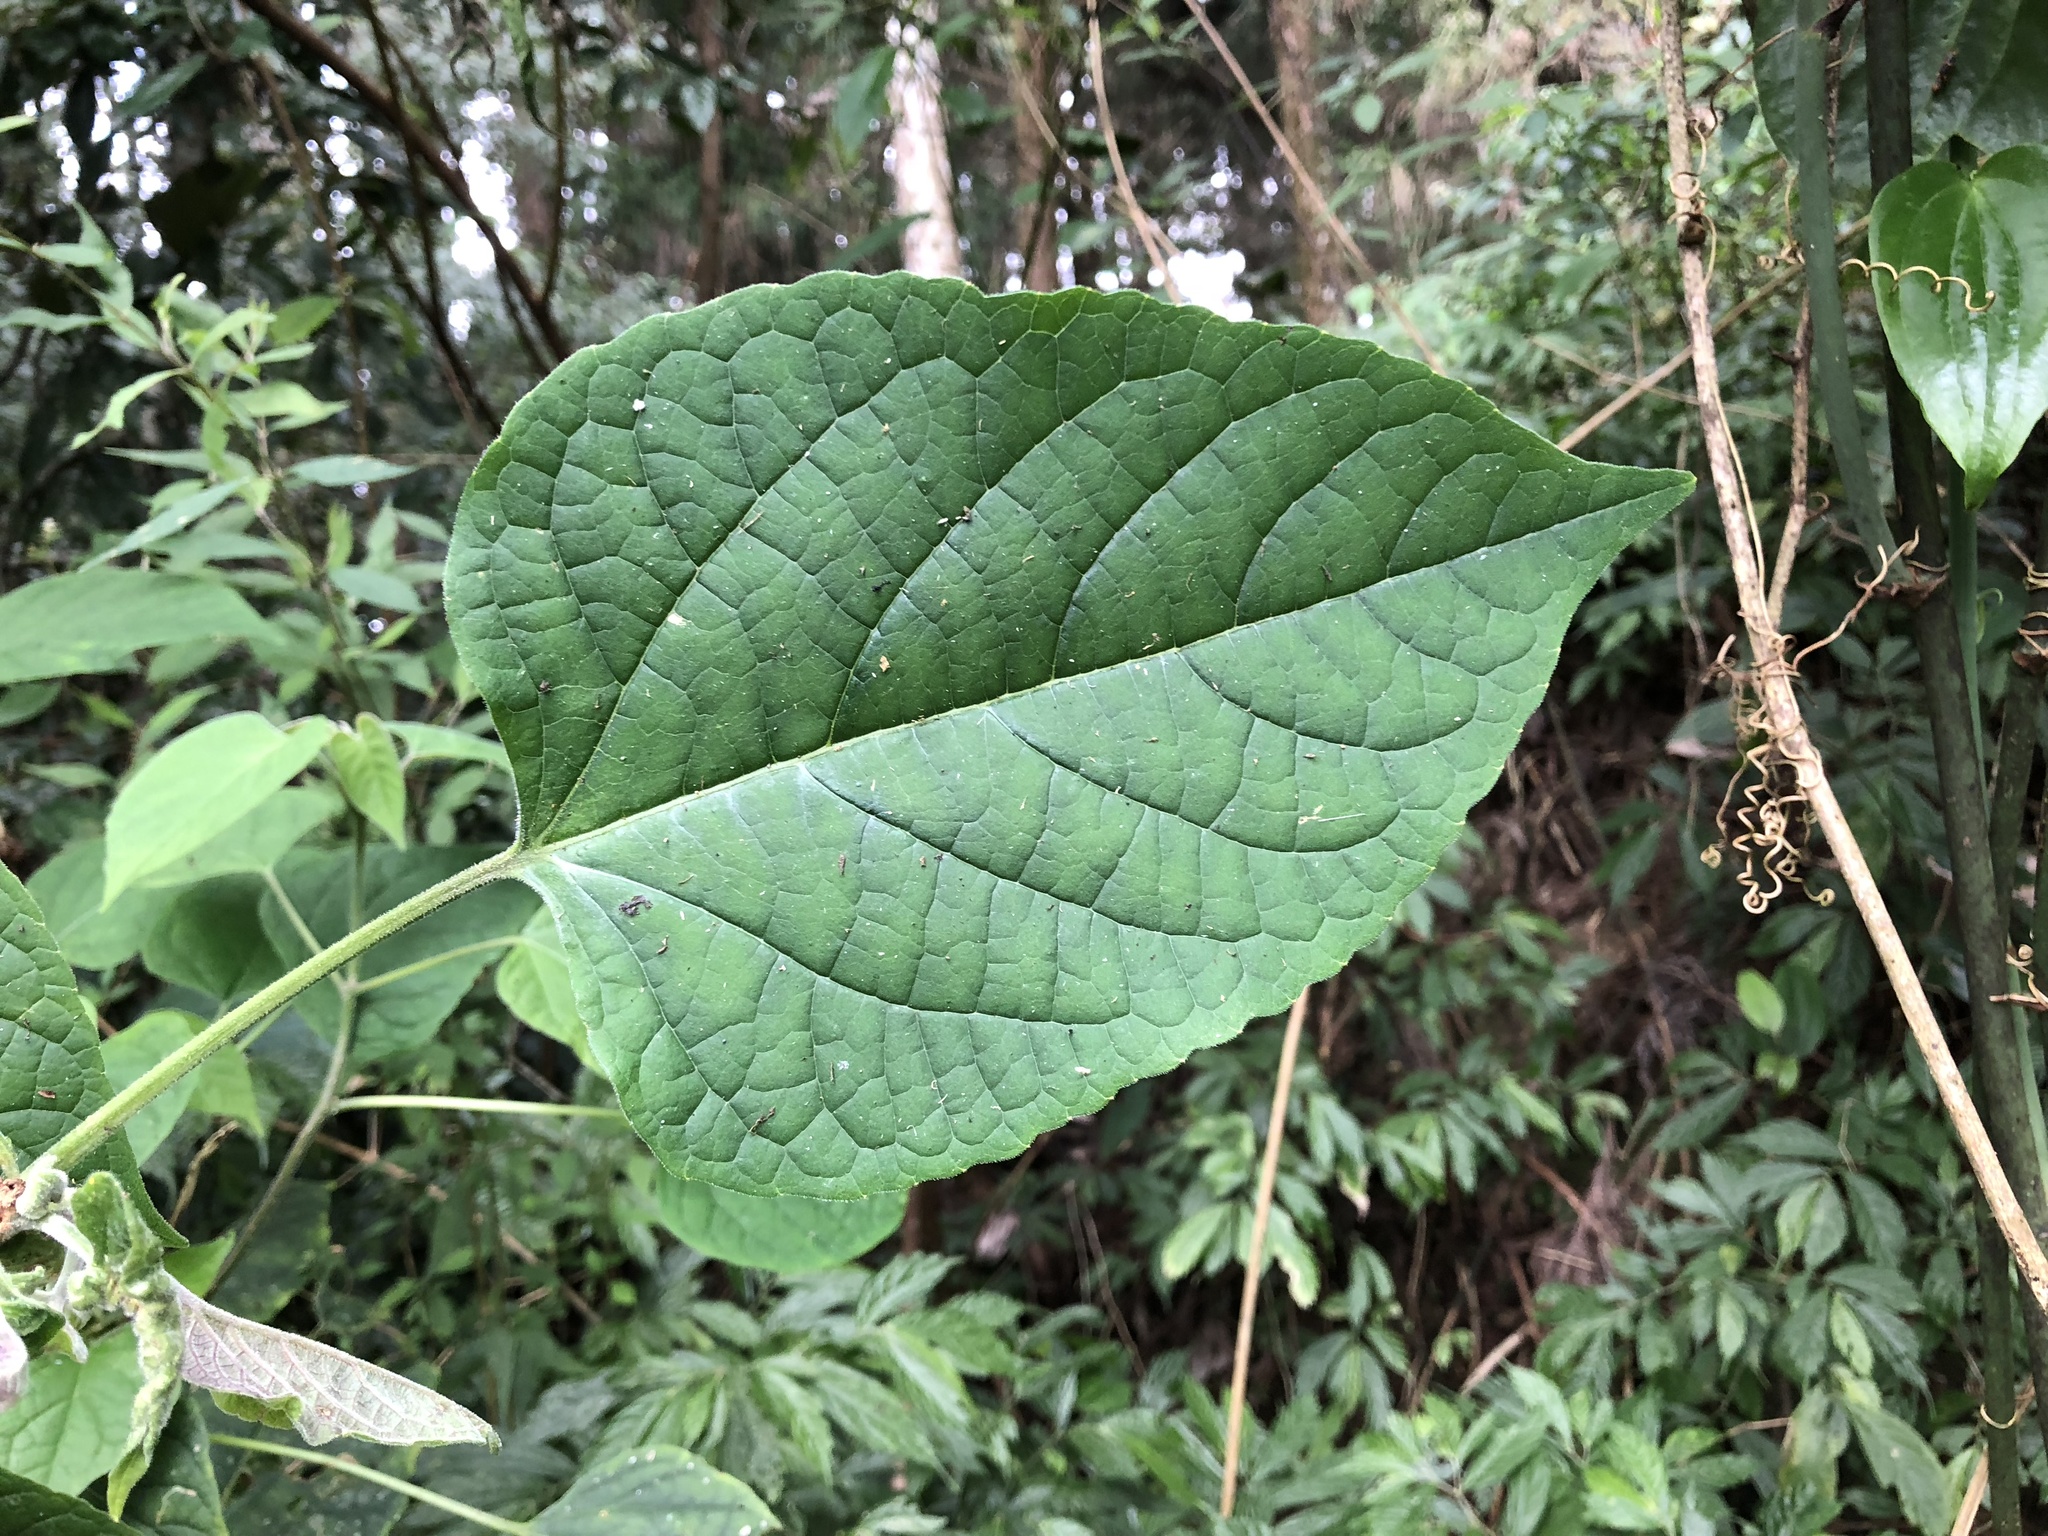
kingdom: Plantae
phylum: Tracheophyta
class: Magnoliopsida
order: Lamiales
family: Lamiaceae
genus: Clerodendrum
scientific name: Clerodendrum trichotomum
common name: Harlequin glorybower
